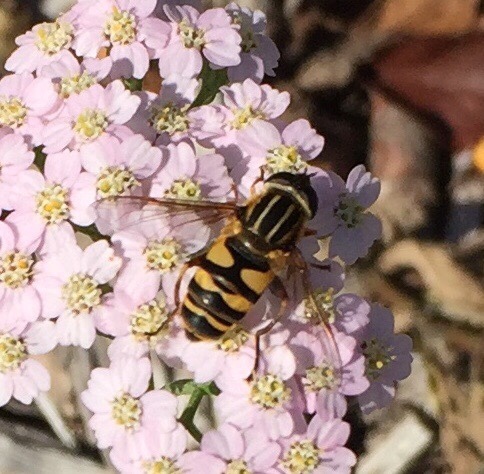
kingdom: Animalia
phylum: Arthropoda
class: Insecta
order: Diptera
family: Syrphidae
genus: Helophilus
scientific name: Helophilus fasciatus
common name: Narrow-headed marsh fly
